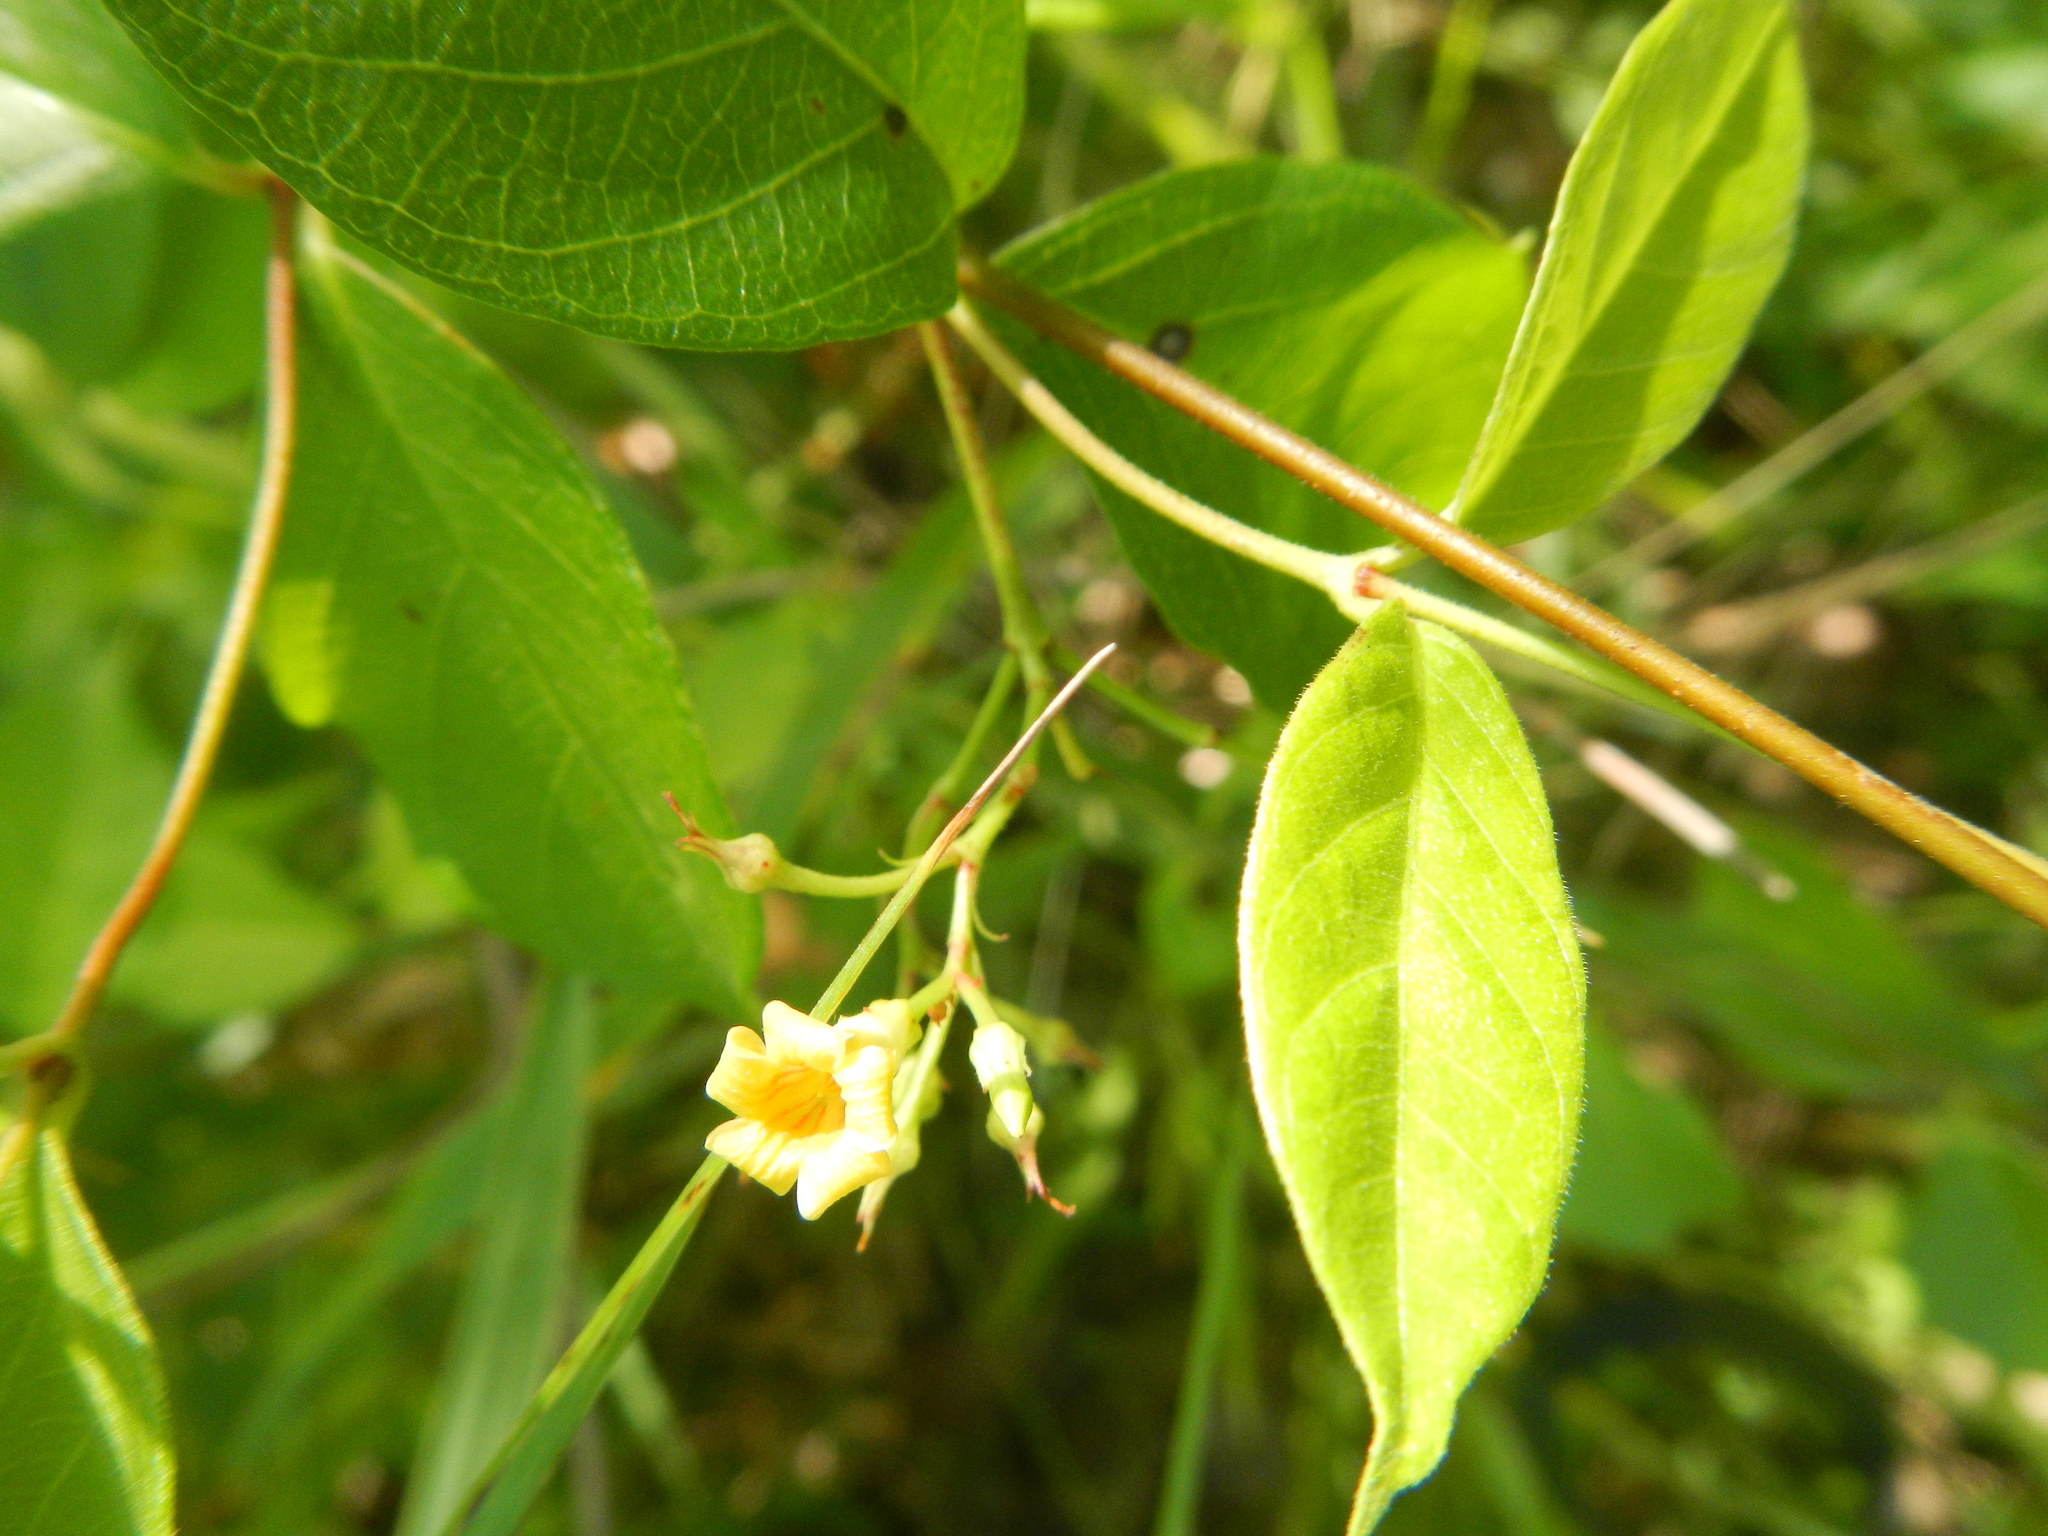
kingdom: Plantae
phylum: Tracheophyta
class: Magnoliopsida
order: Gentianales
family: Apocynaceae
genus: Thyrsanthella
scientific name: Thyrsanthella difformis
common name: Climbing dogbane
